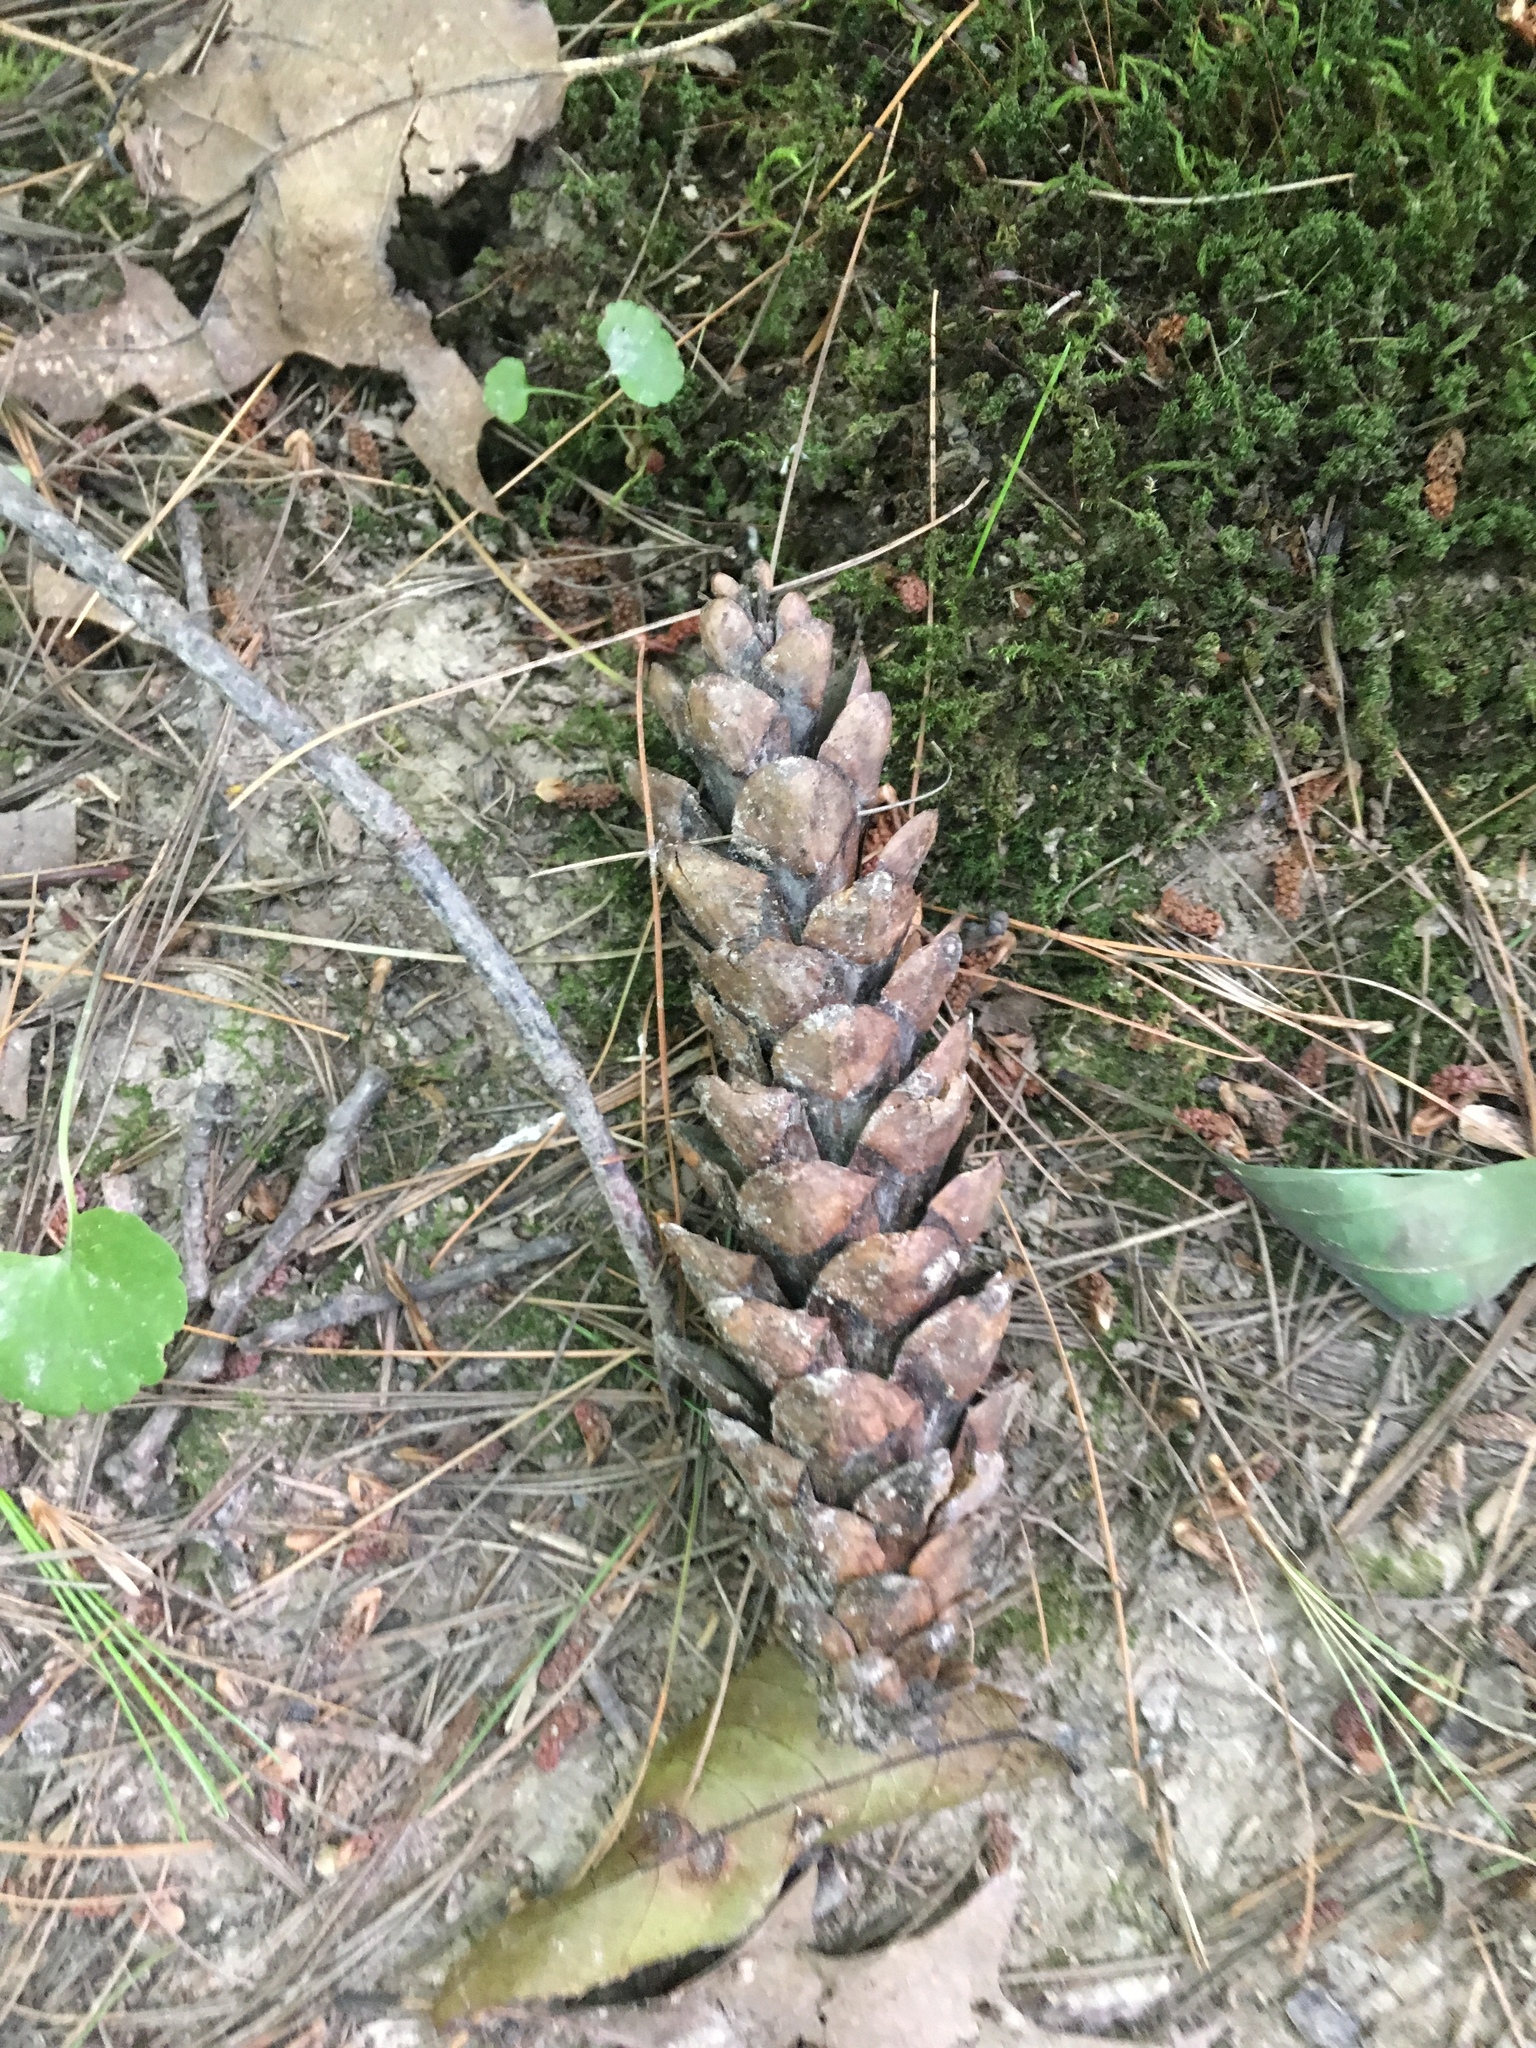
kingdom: Plantae
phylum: Tracheophyta
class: Pinopsida
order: Pinales
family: Pinaceae
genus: Pinus
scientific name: Pinus strobus
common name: Weymouth pine
